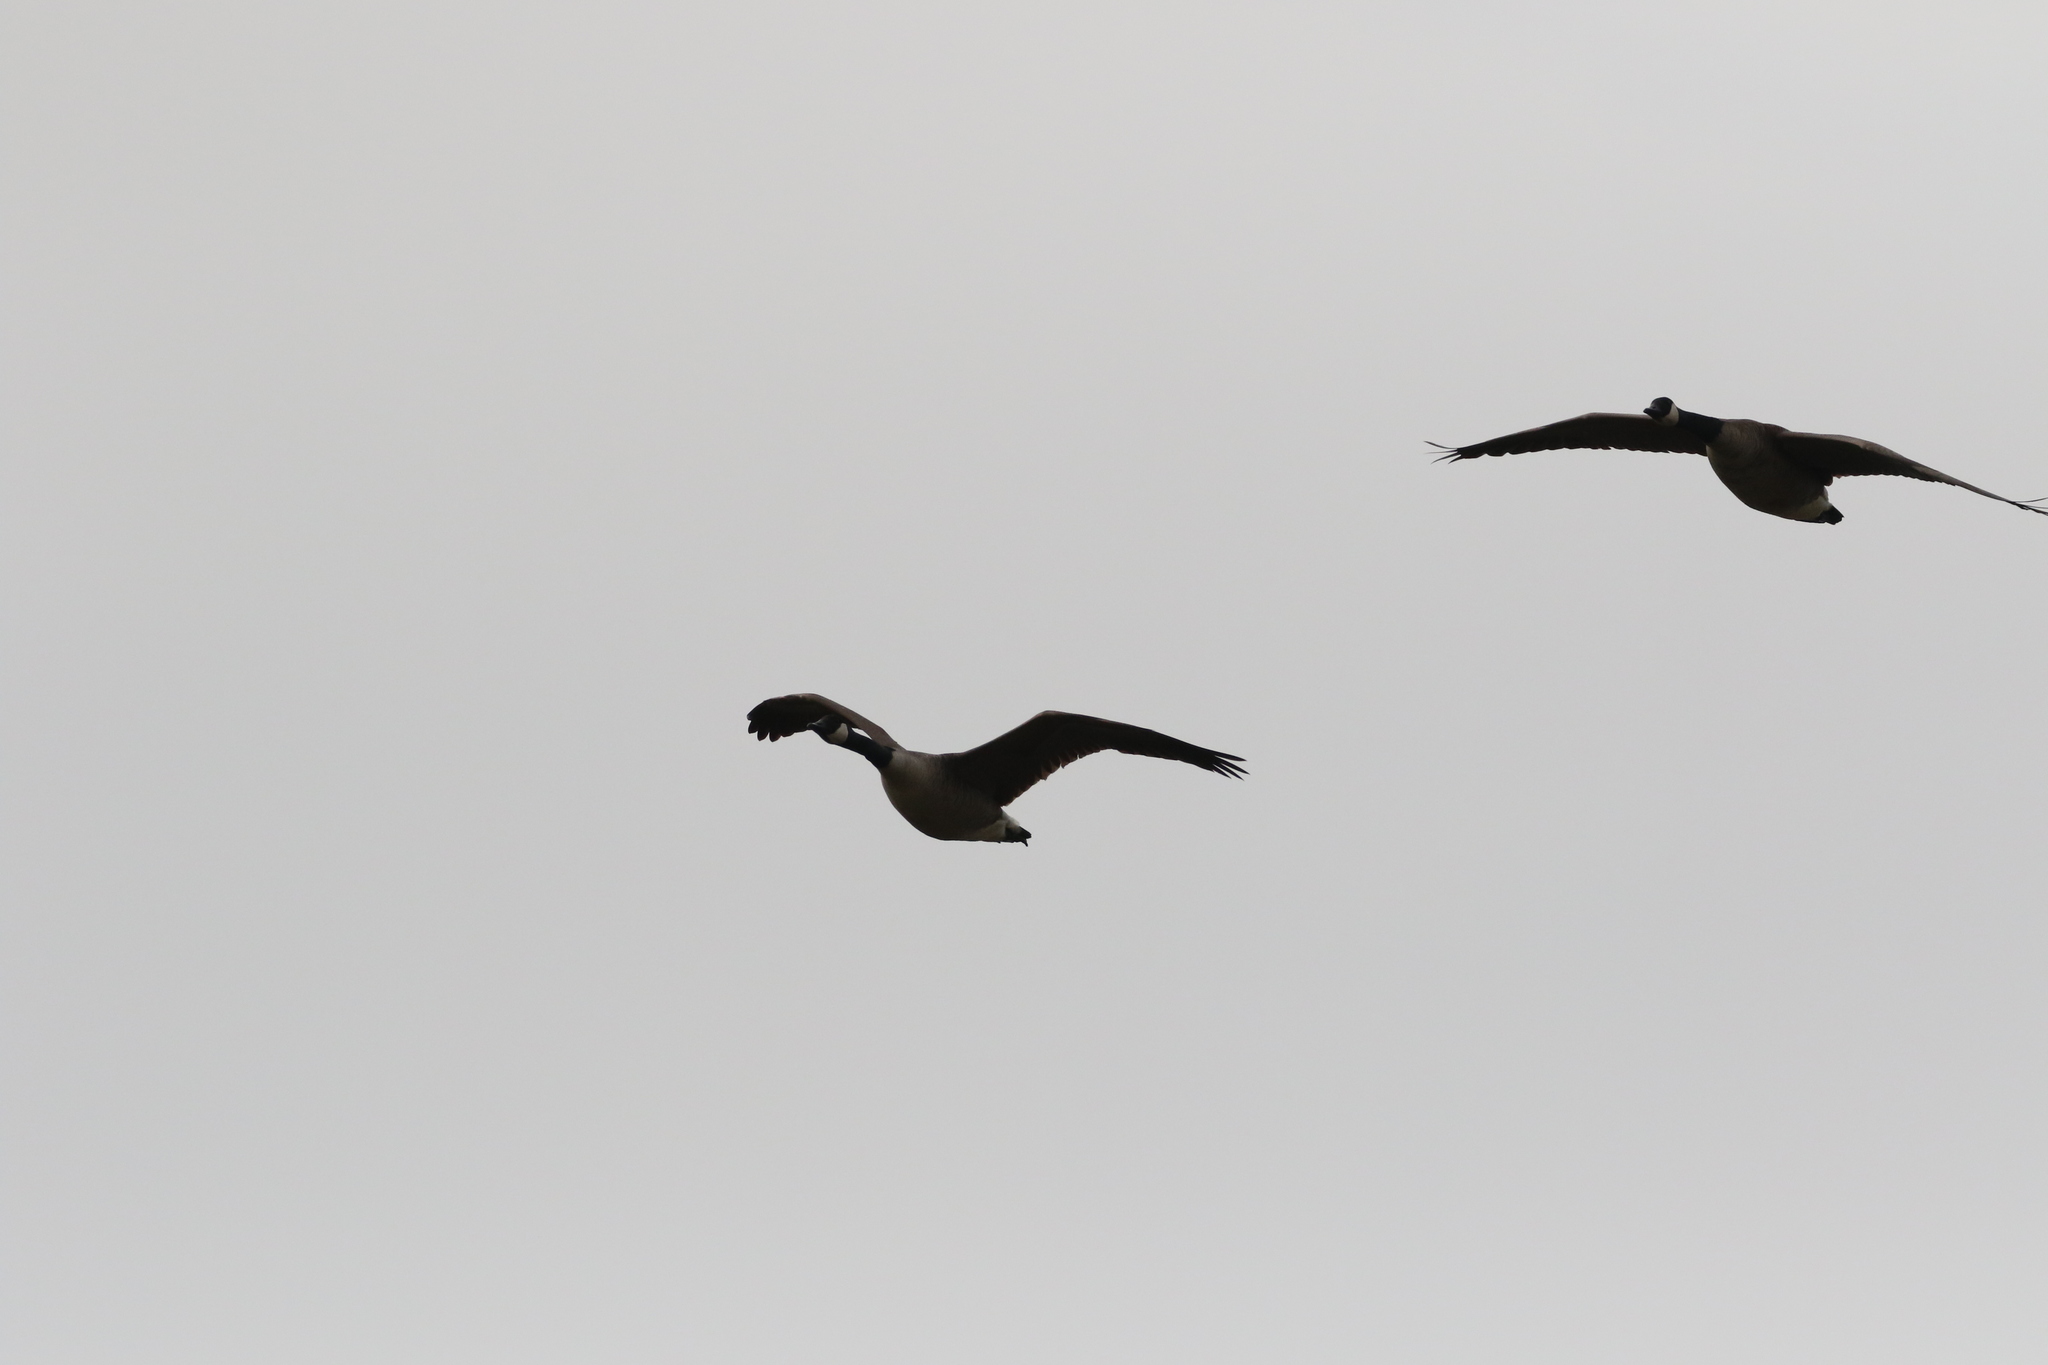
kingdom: Animalia
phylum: Chordata
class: Aves
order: Anseriformes
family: Anatidae
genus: Branta
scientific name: Branta canadensis
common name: Canada goose
